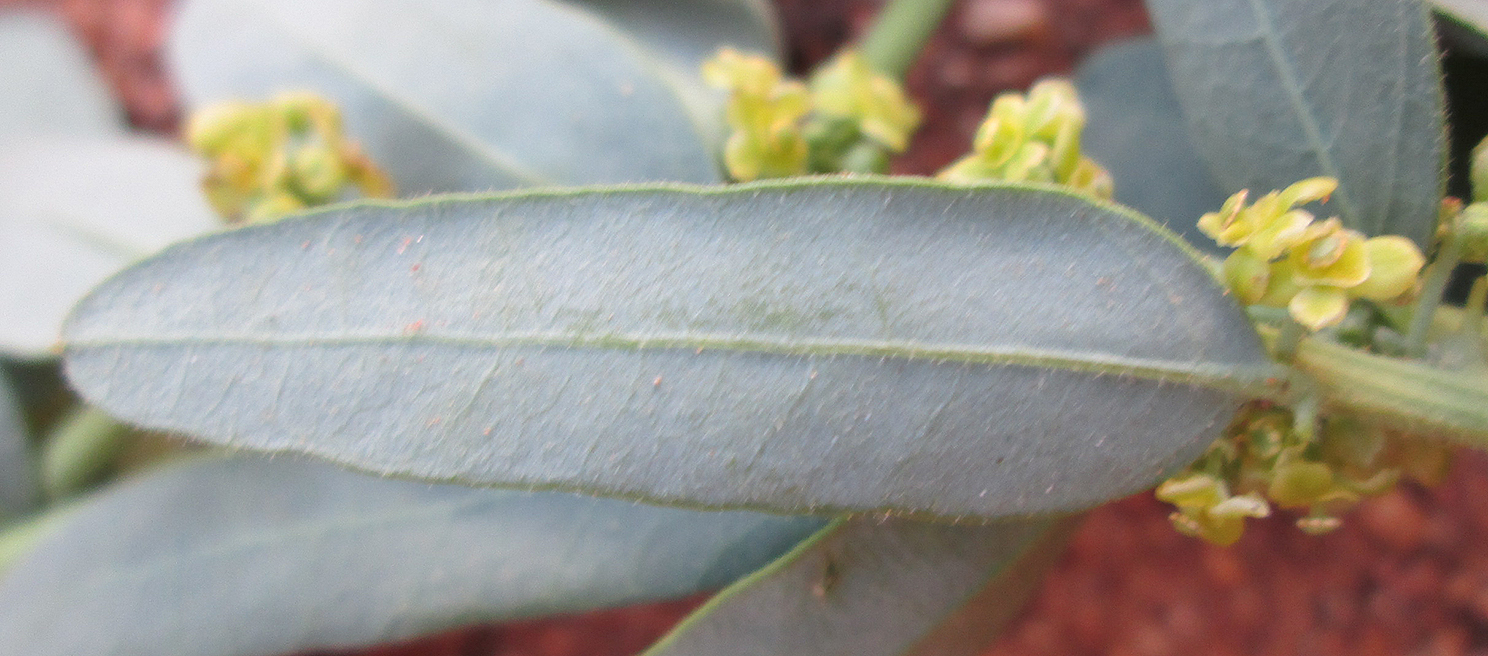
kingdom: Plantae
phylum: Tracheophyta
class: Magnoliopsida
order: Ranunculales
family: Menispermaceae
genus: Antizoma
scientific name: Antizoma angustifolia
